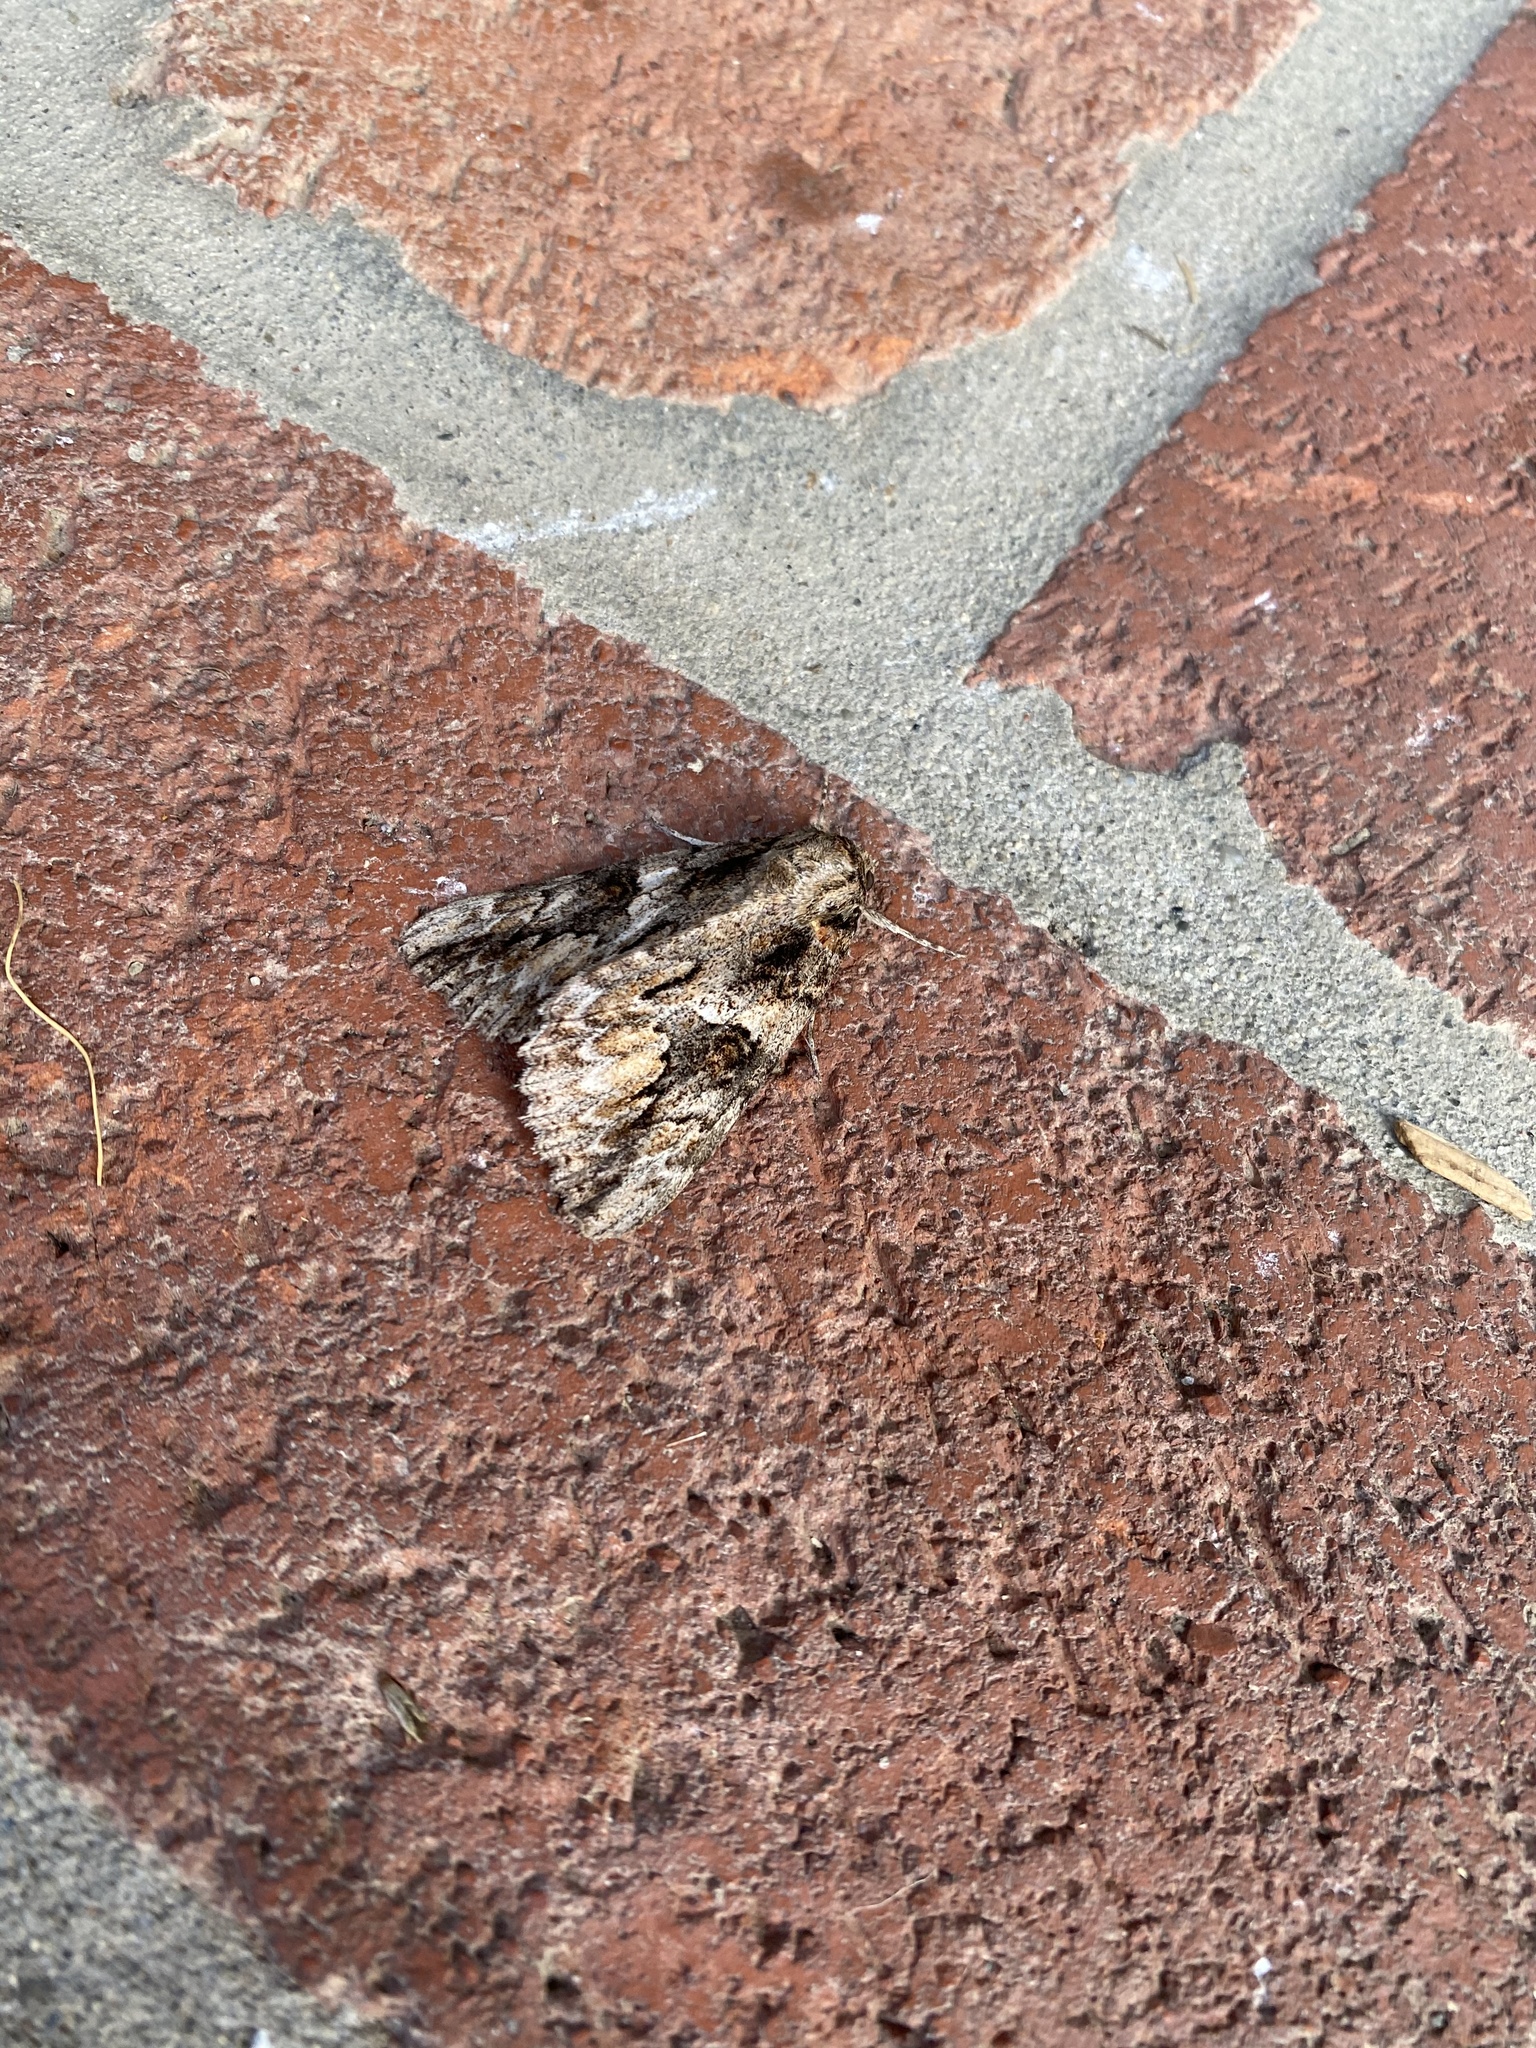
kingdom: Animalia
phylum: Arthropoda
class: Insecta
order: Lepidoptera
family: Erebidae
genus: Catocala
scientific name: Catocala irene
